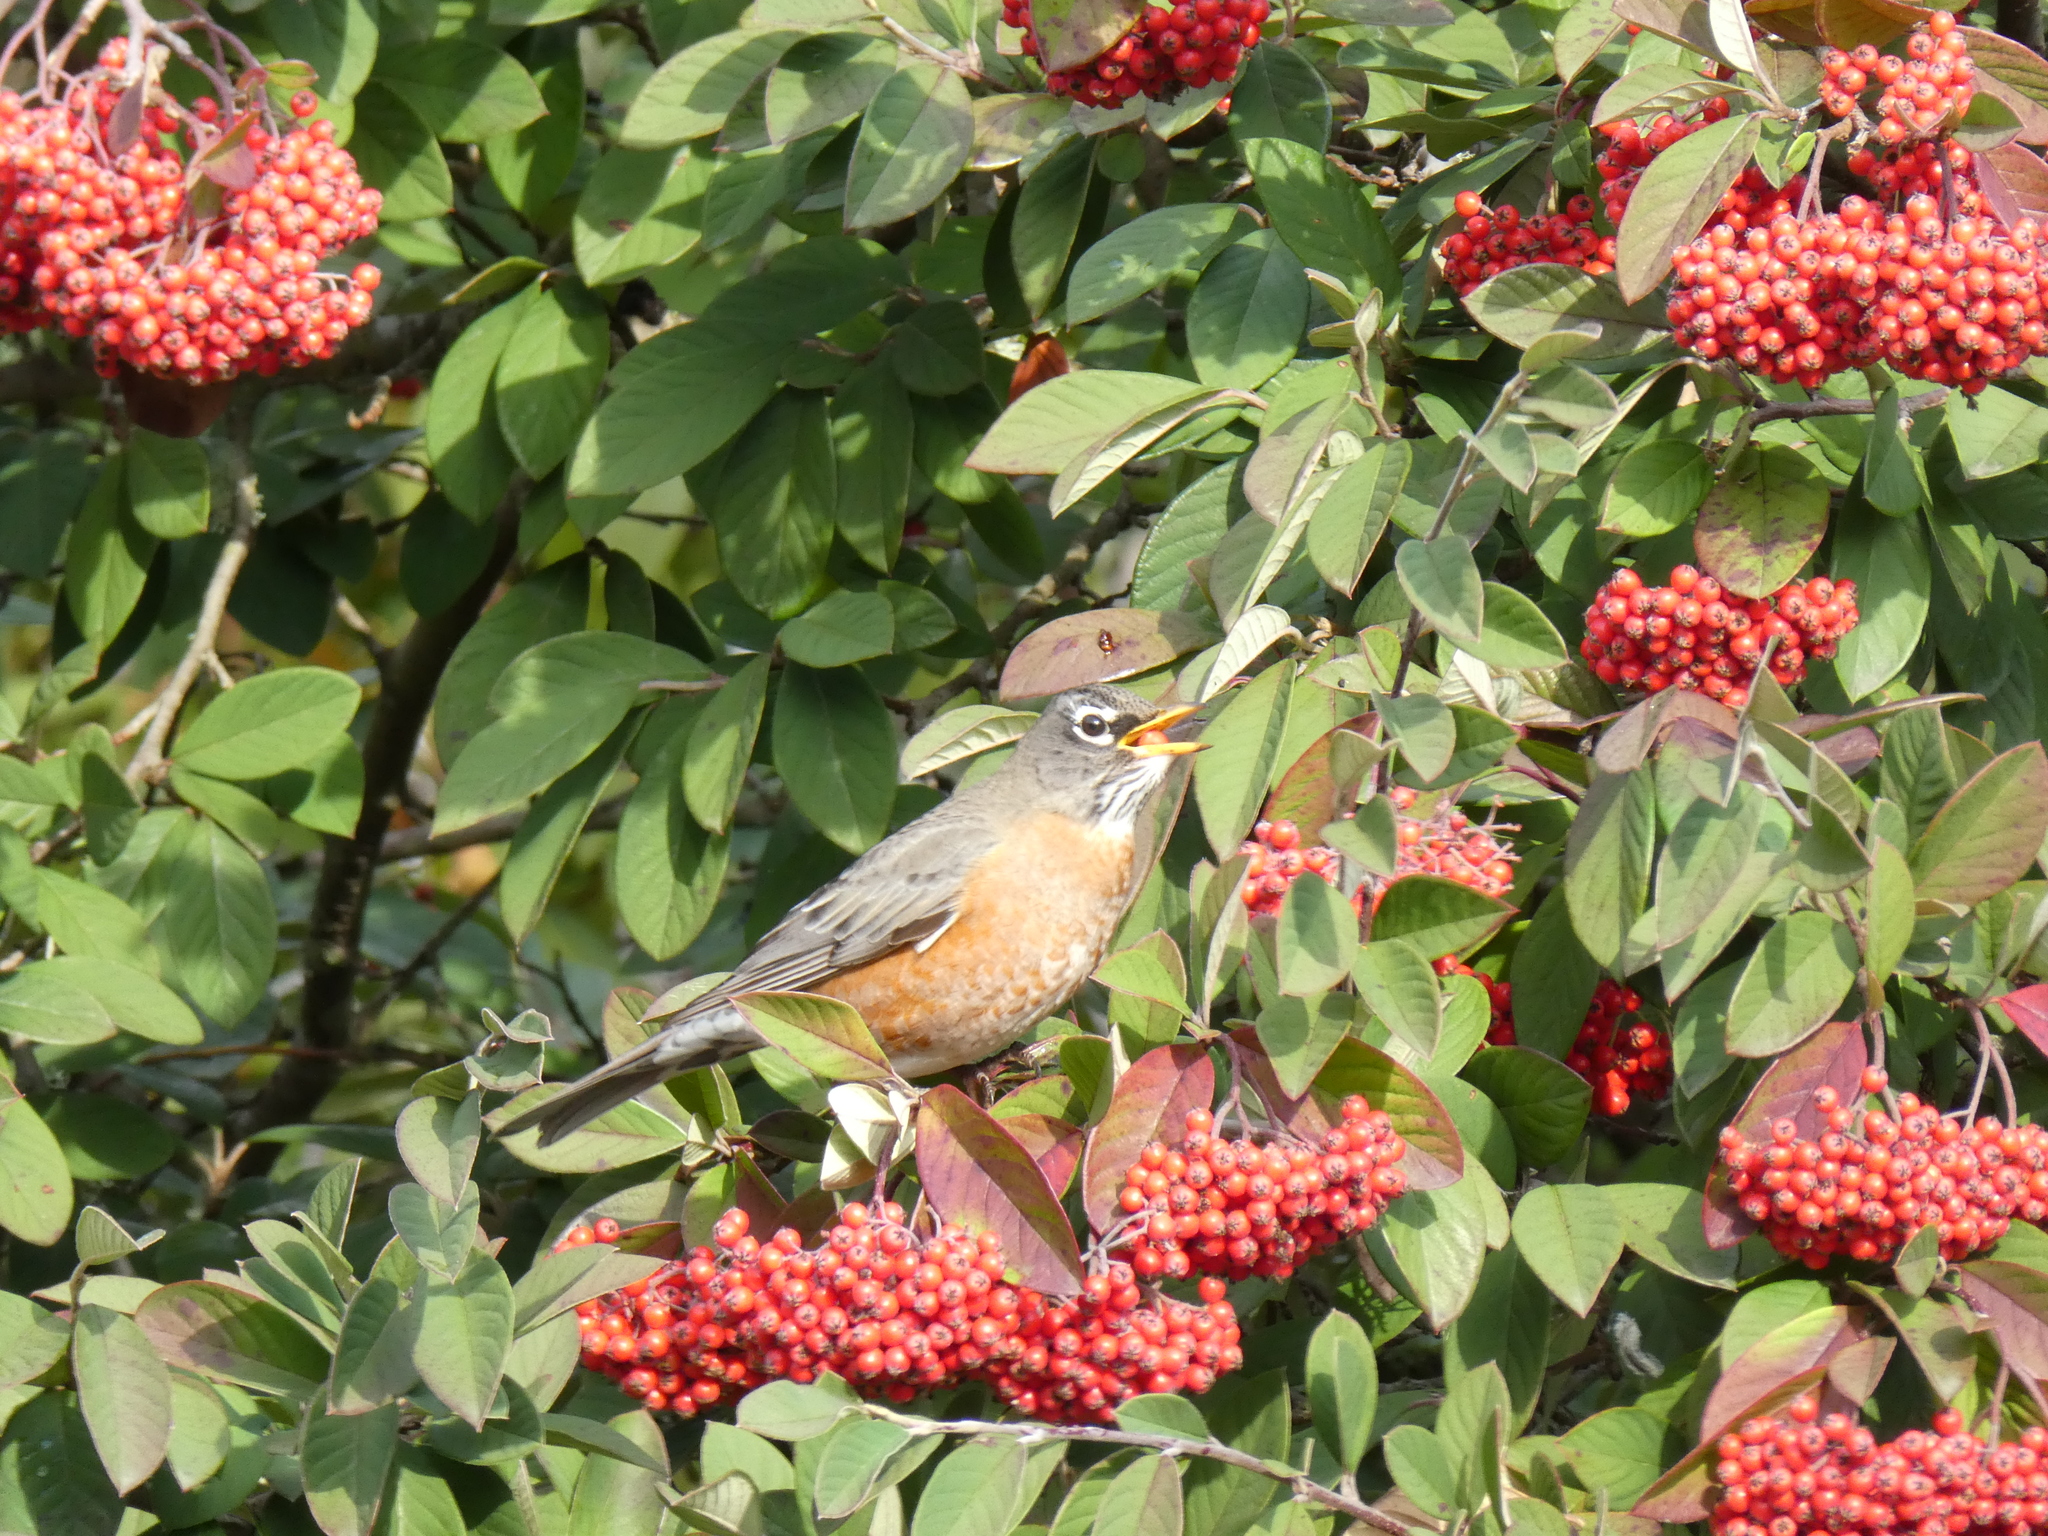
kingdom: Animalia
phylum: Chordata
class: Aves
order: Passeriformes
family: Turdidae
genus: Turdus
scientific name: Turdus migratorius
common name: American robin
